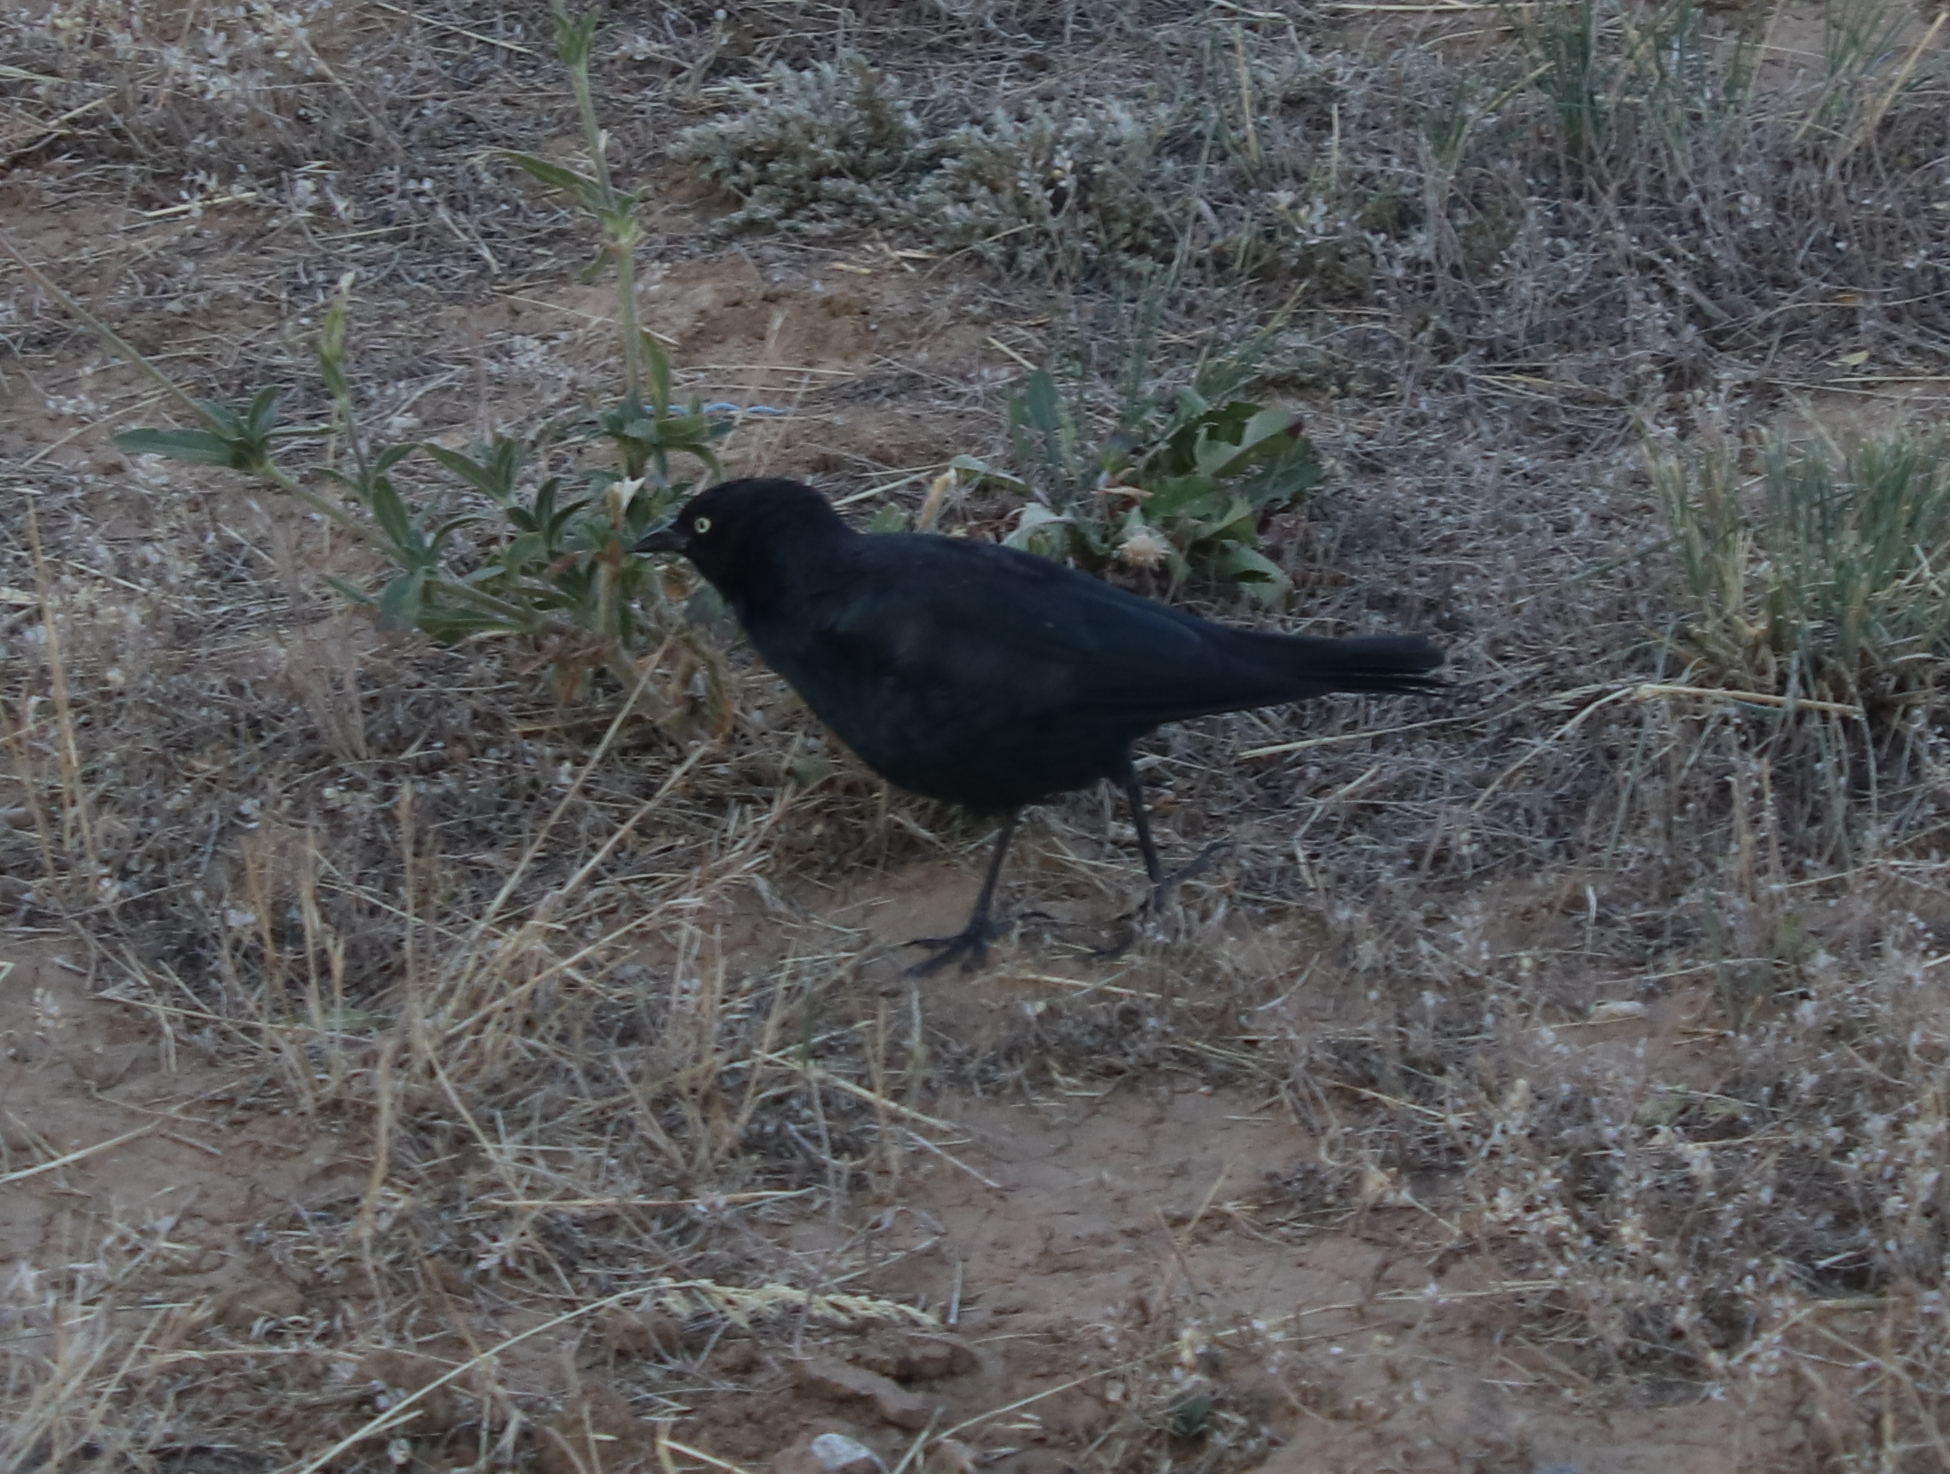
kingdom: Animalia
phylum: Chordata
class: Aves
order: Passeriformes
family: Icteridae
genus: Euphagus
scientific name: Euphagus cyanocephalus
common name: Brewer's blackbird
